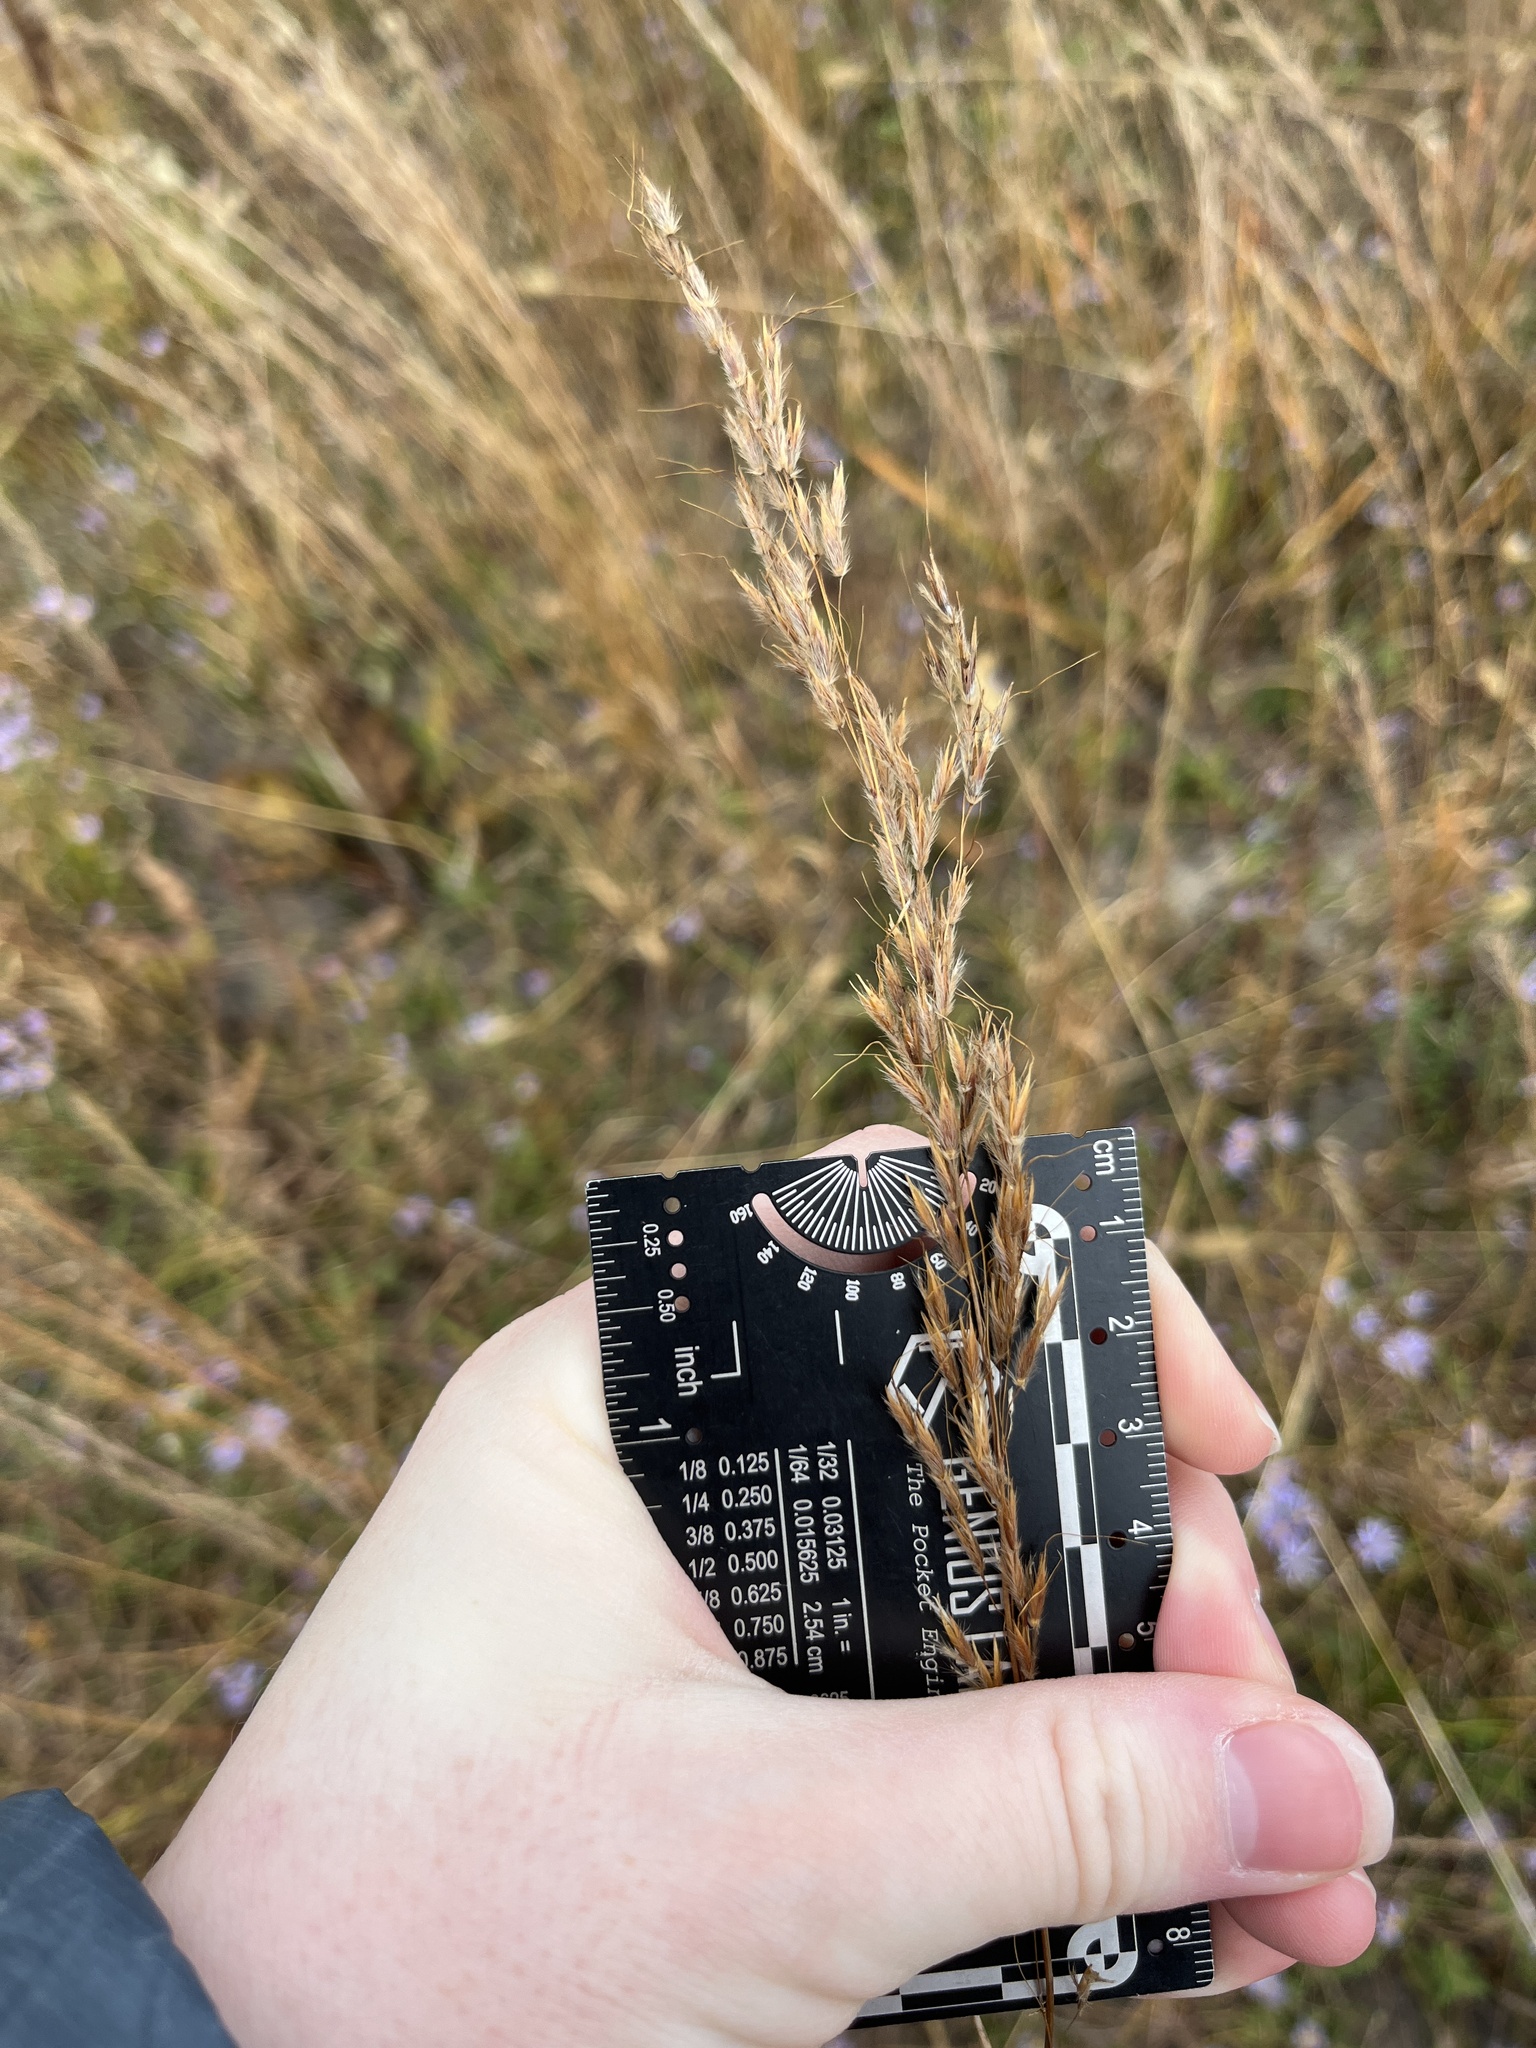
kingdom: Plantae
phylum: Tracheophyta
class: Liliopsida
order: Poales
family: Poaceae
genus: Sorghastrum
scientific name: Sorghastrum nutans
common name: Indian grass
